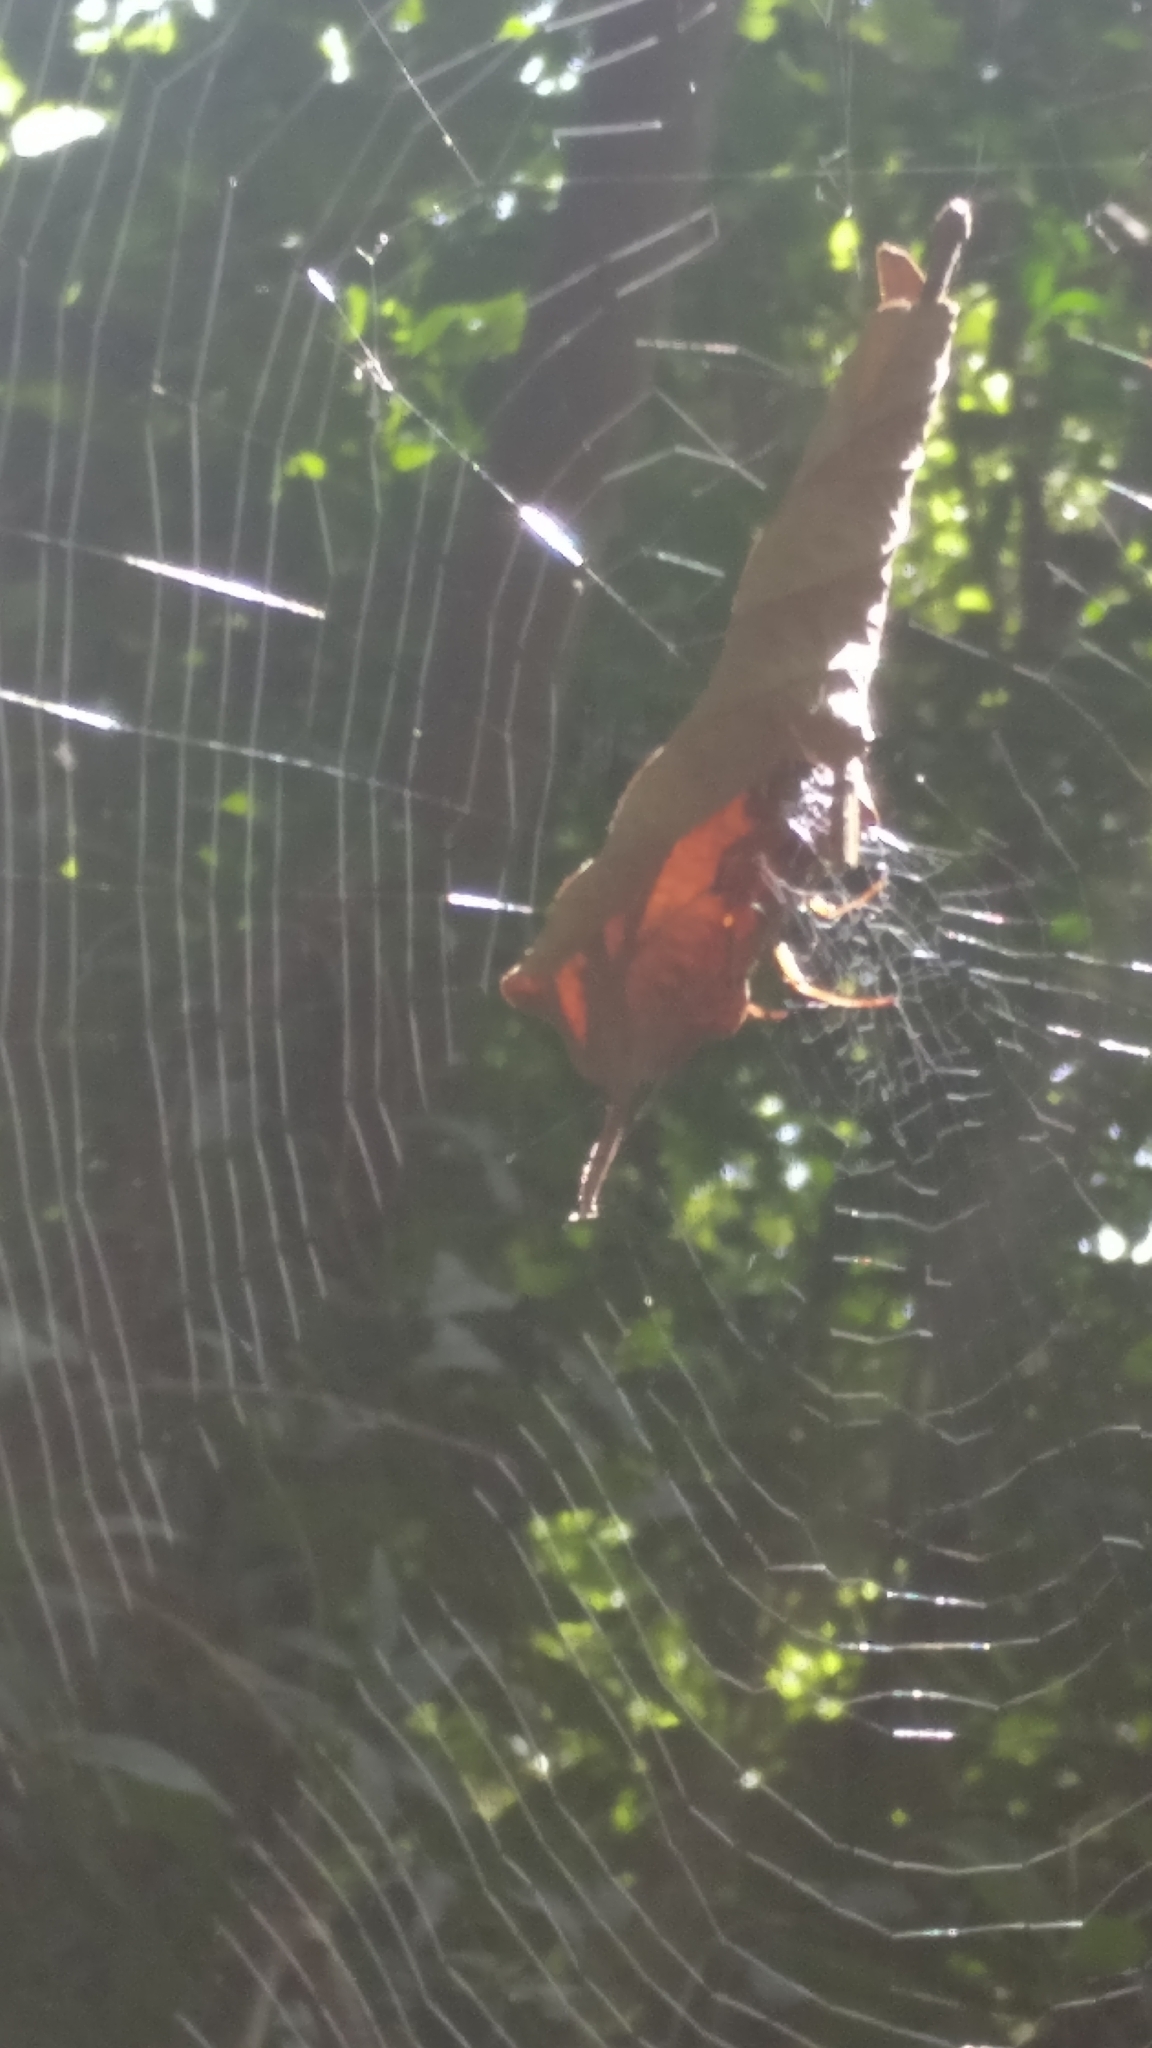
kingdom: Animalia
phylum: Arthropoda
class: Arachnida
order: Araneae
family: Araneidae
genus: Phonognatha
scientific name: Phonognatha graeffei
